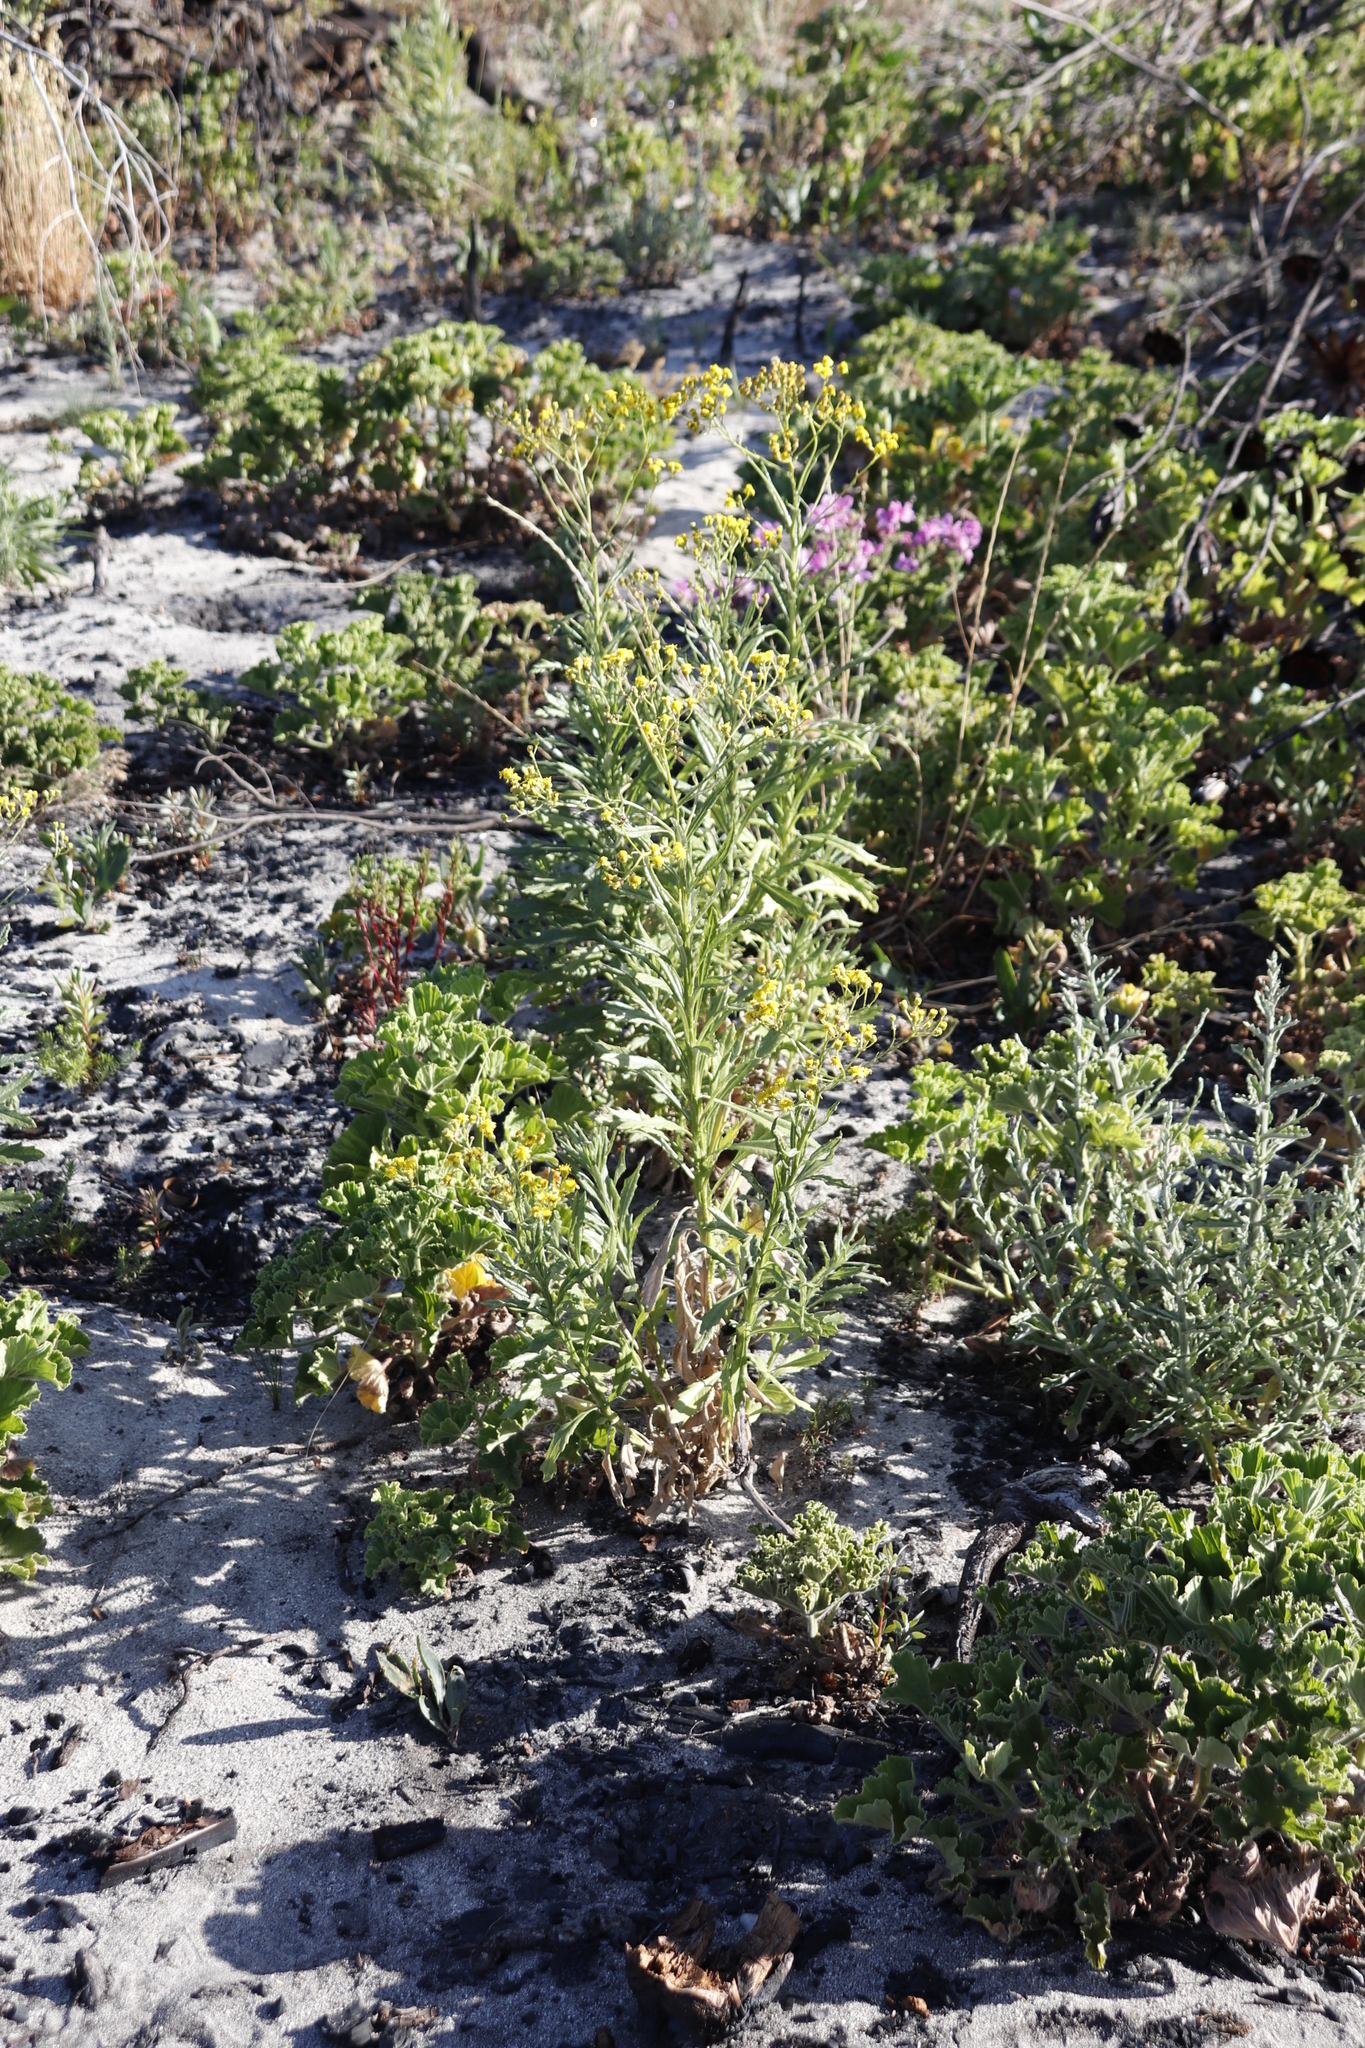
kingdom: Plantae
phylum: Tracheophyta
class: Magnoliopsida
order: Asterales
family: Asteraceae
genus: Senecio
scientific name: Senecio pterophorus
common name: Shoddy ragwort
